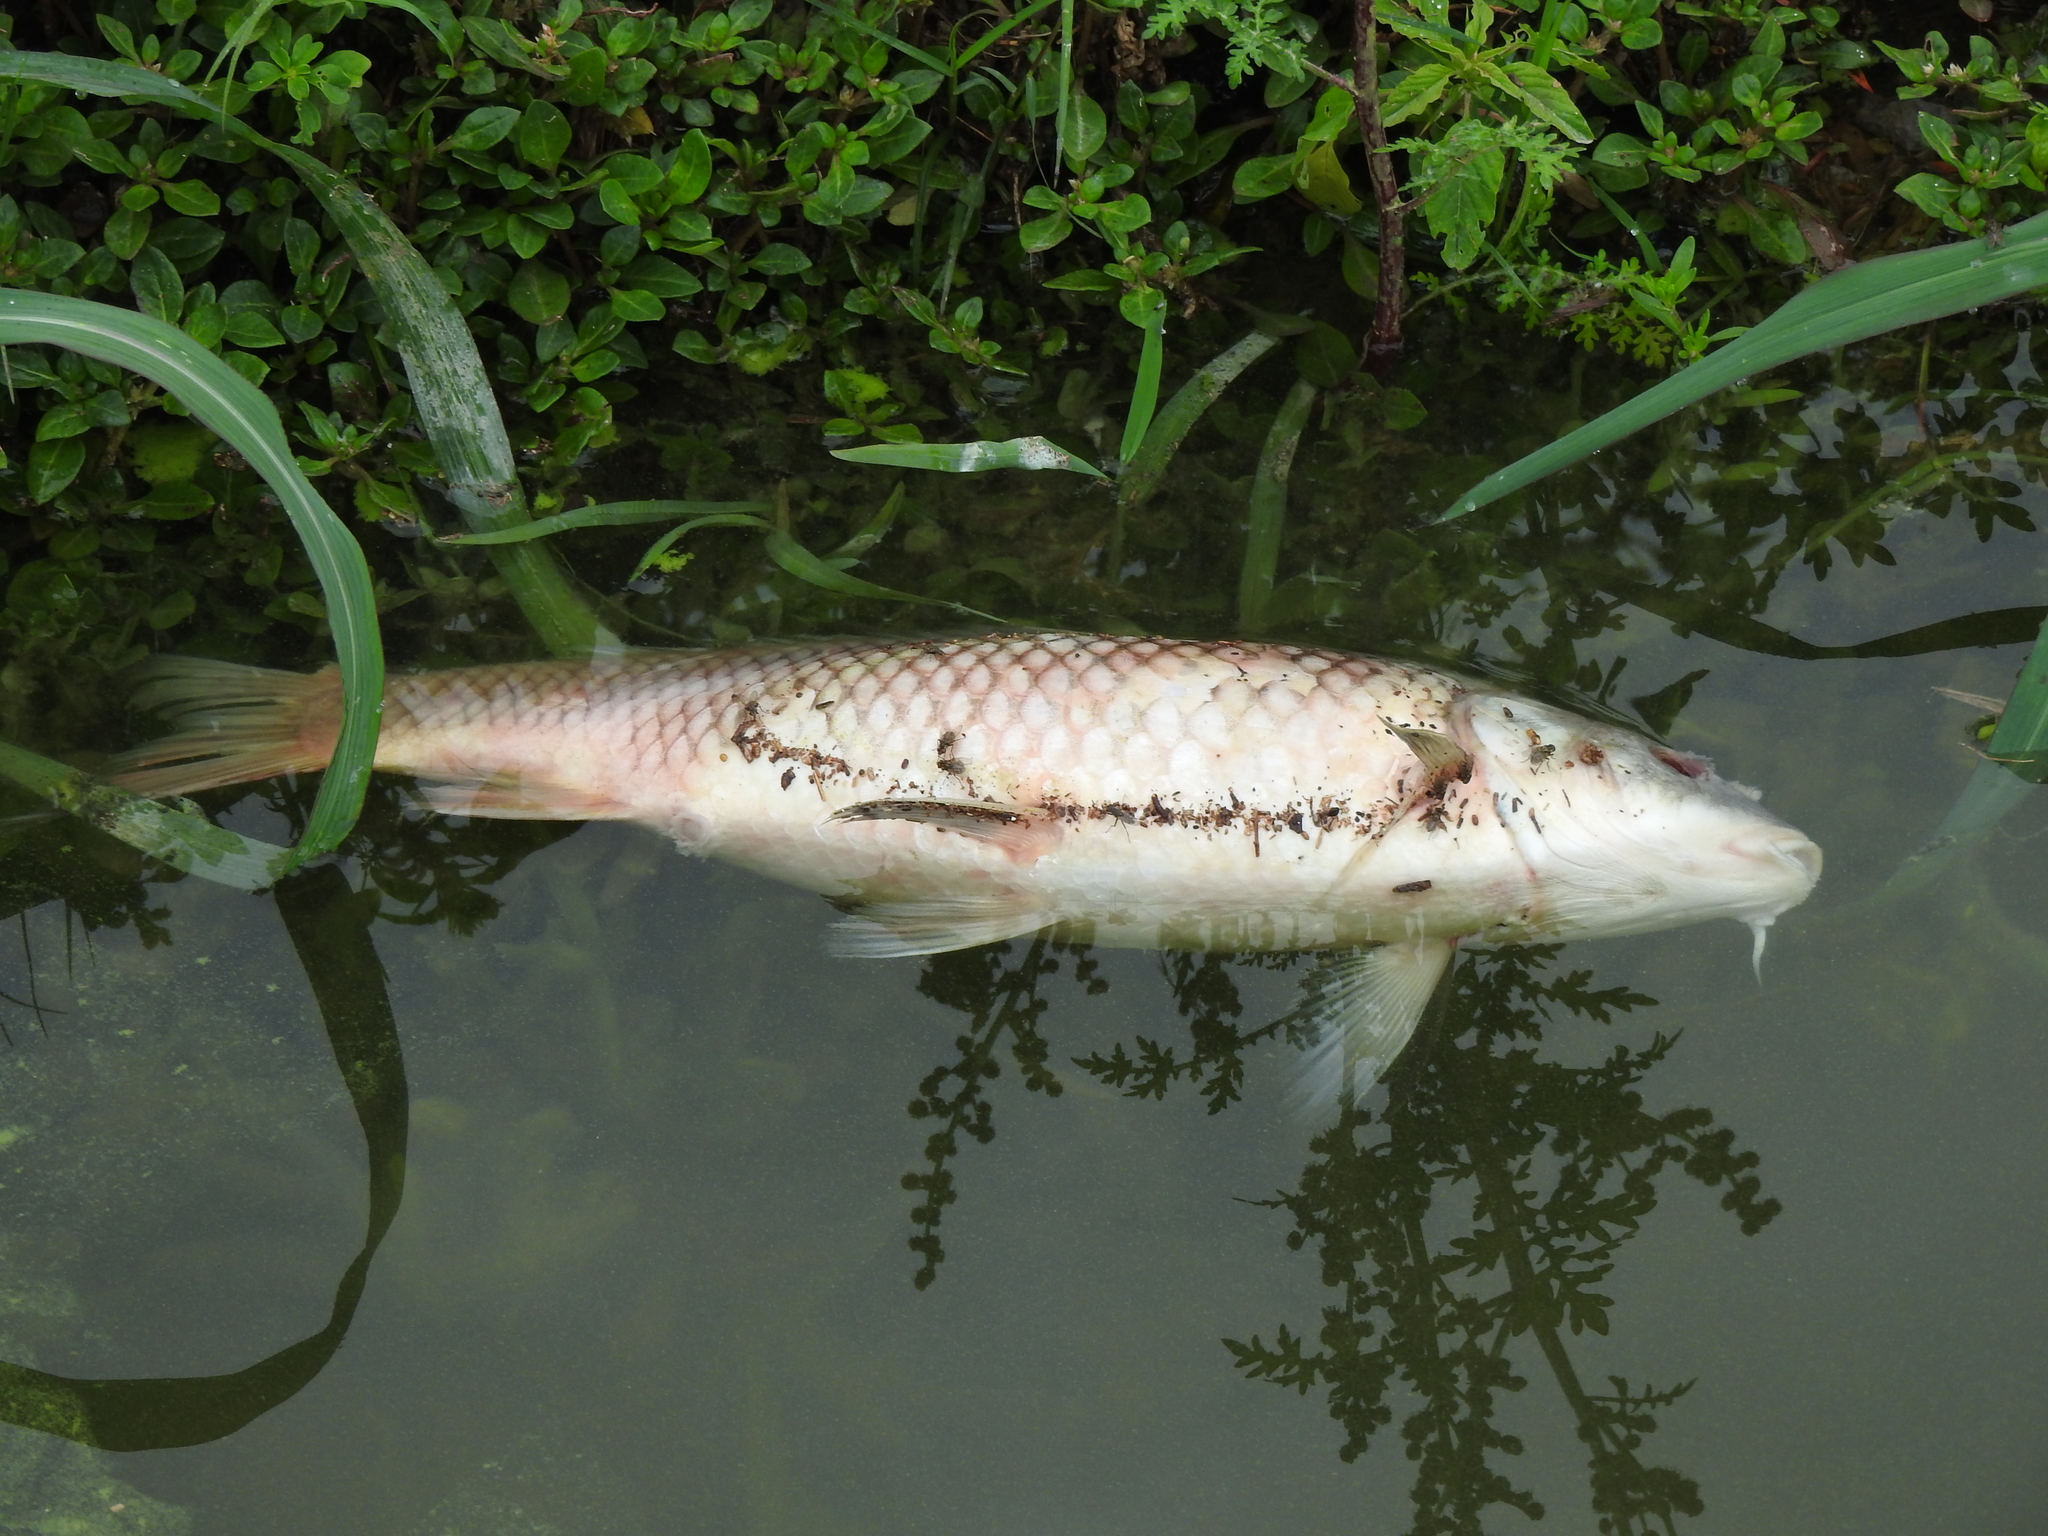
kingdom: Animalia
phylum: Chordata
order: Cypriniformes
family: Cyprinidae
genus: Cyprinus
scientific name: Cyprinus carpio
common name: Common carp
